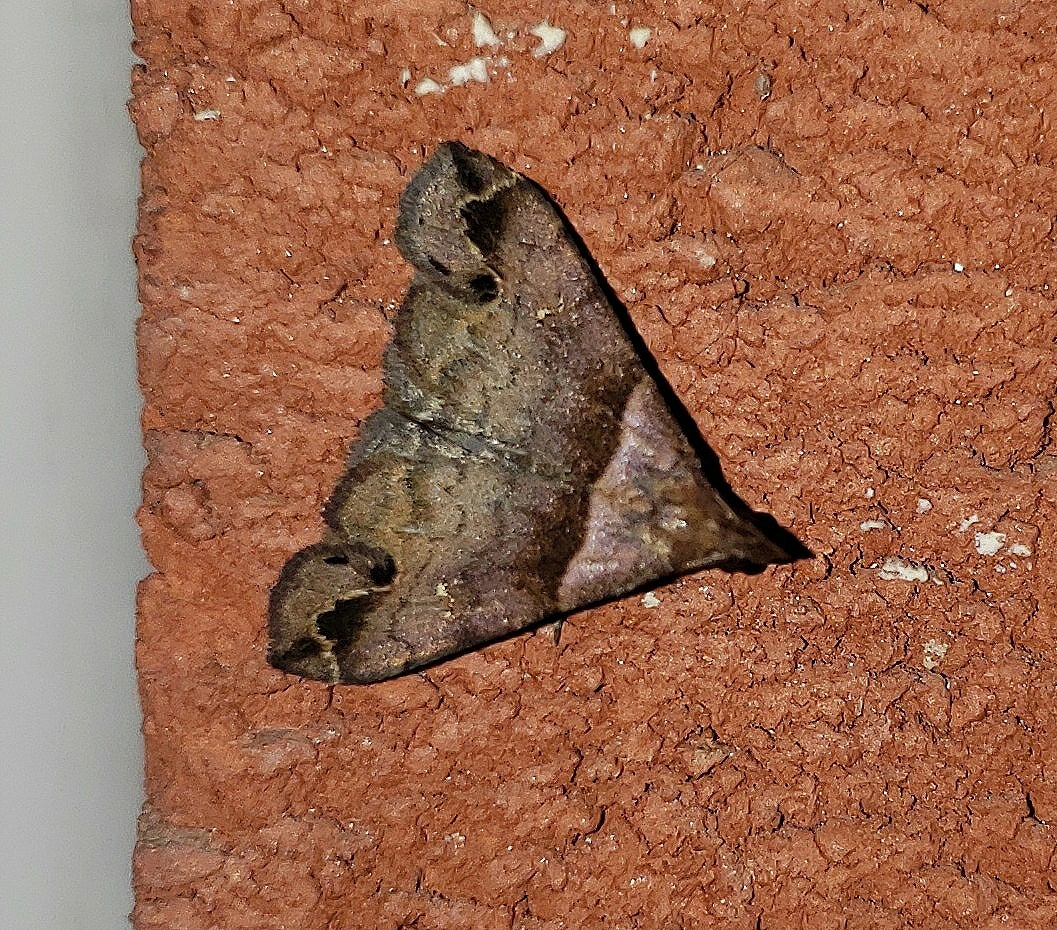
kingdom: Animalia
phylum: Arthropoda
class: Insecta
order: Lepidoptera
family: Erebidae
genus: Lascoria
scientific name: Lascoria ambigualis
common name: Ambiguous moth
